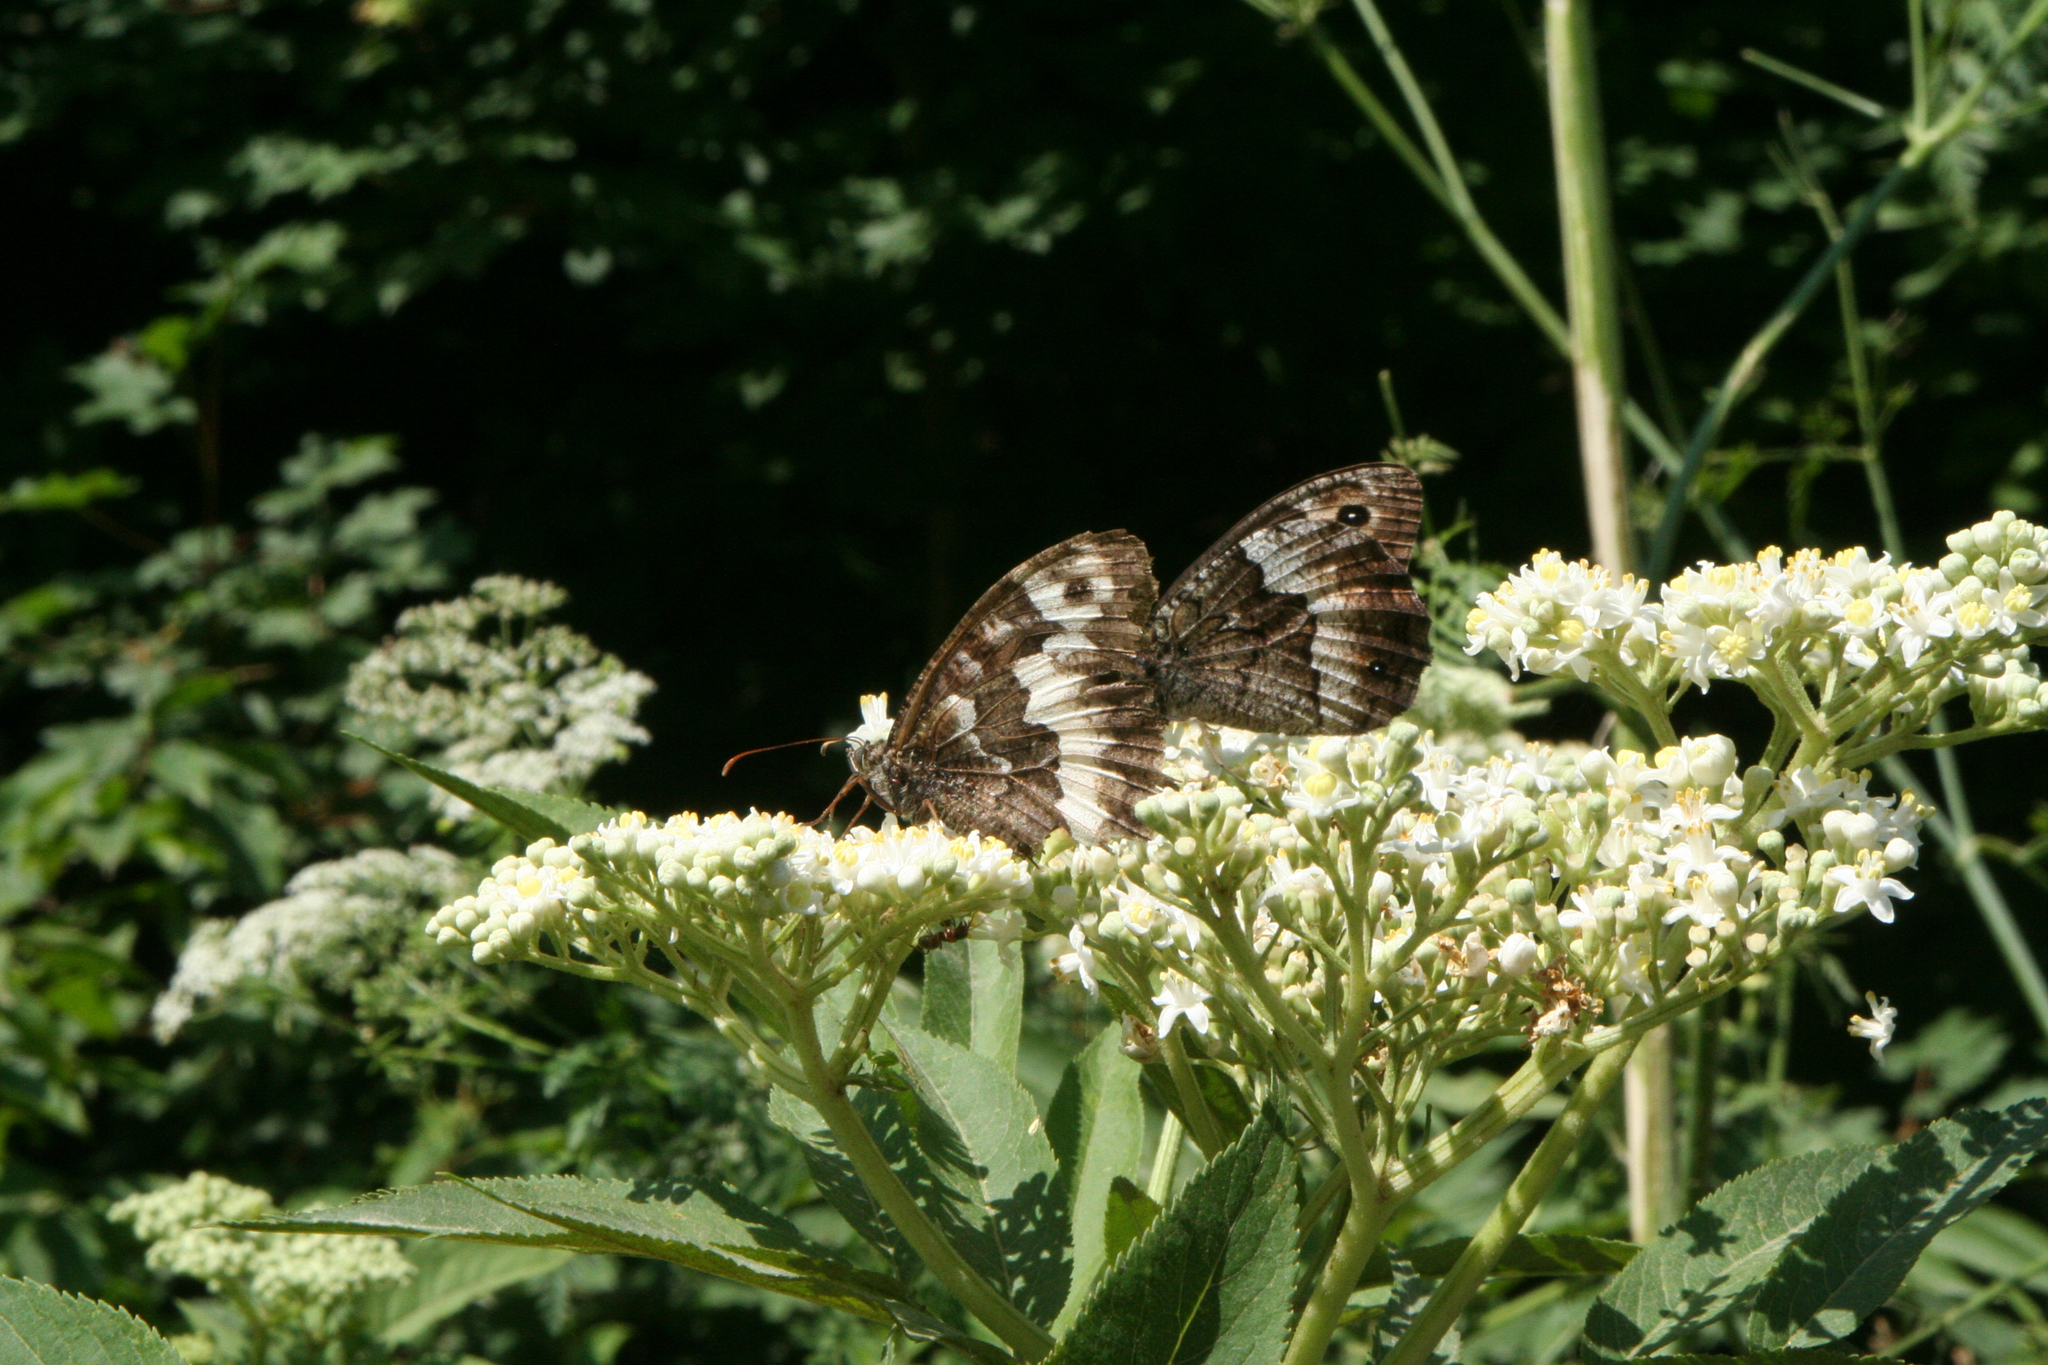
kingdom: Animalia
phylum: Arthropoda
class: Insecta
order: Lepidoptera
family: Nymphalidae
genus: Hipparchia
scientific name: Hipparchia fagi
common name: Woodland grayling
